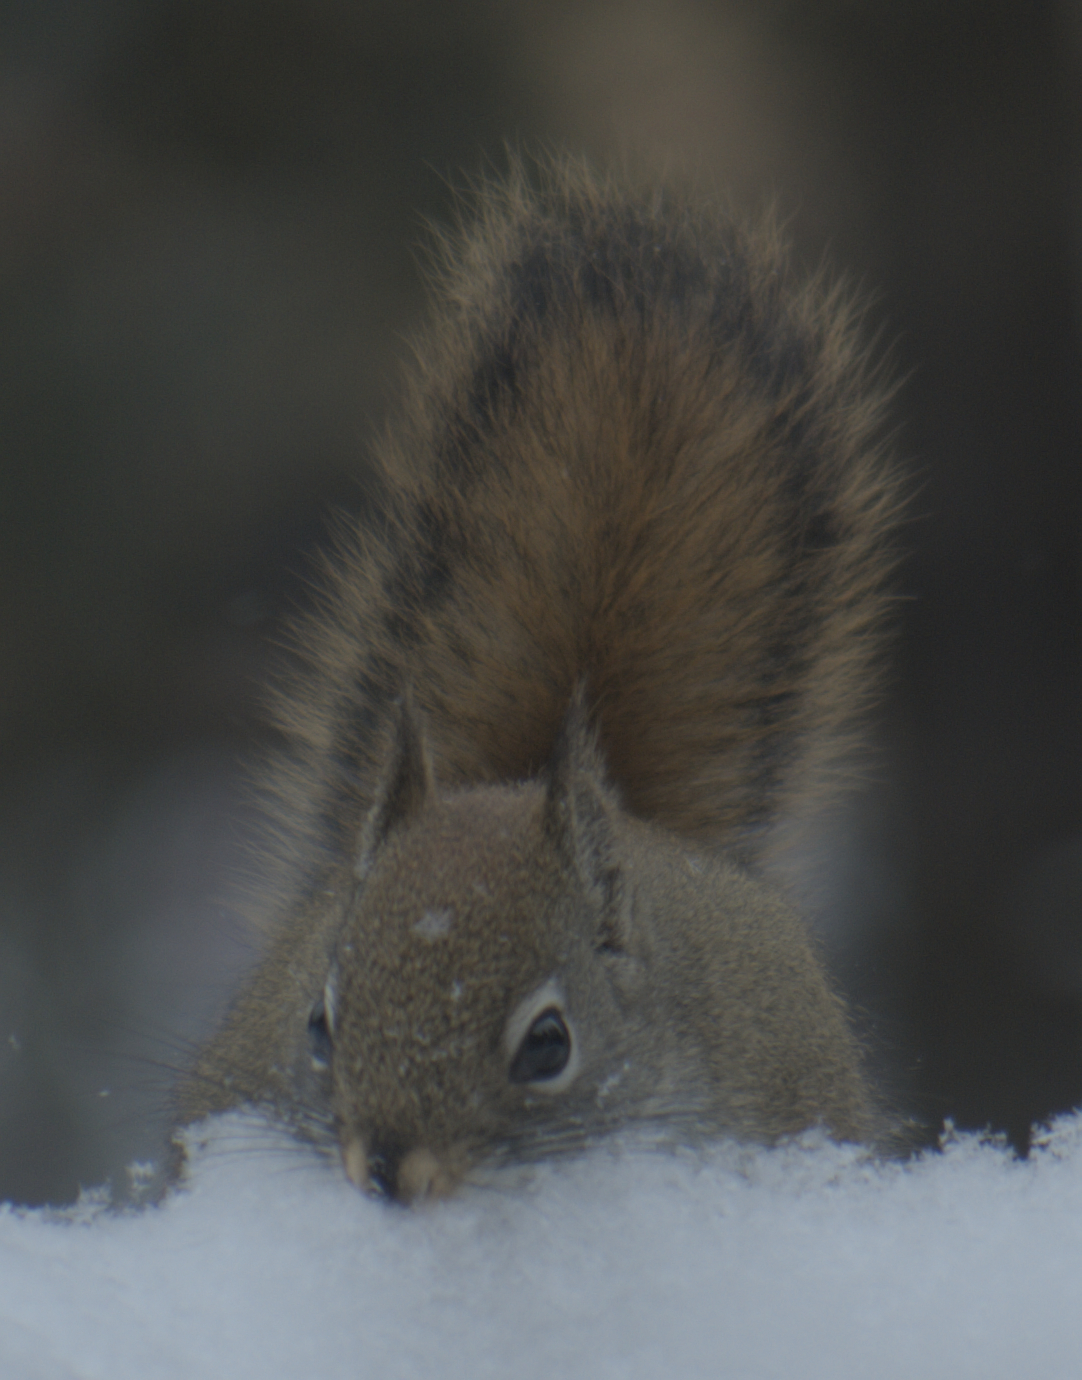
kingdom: Animalia
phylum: Chordata
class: Mammalia
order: Rodentia
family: Sciuridae
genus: Tamiasciurus
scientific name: Tamiasciurus hudsonicus
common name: Red squirrel
